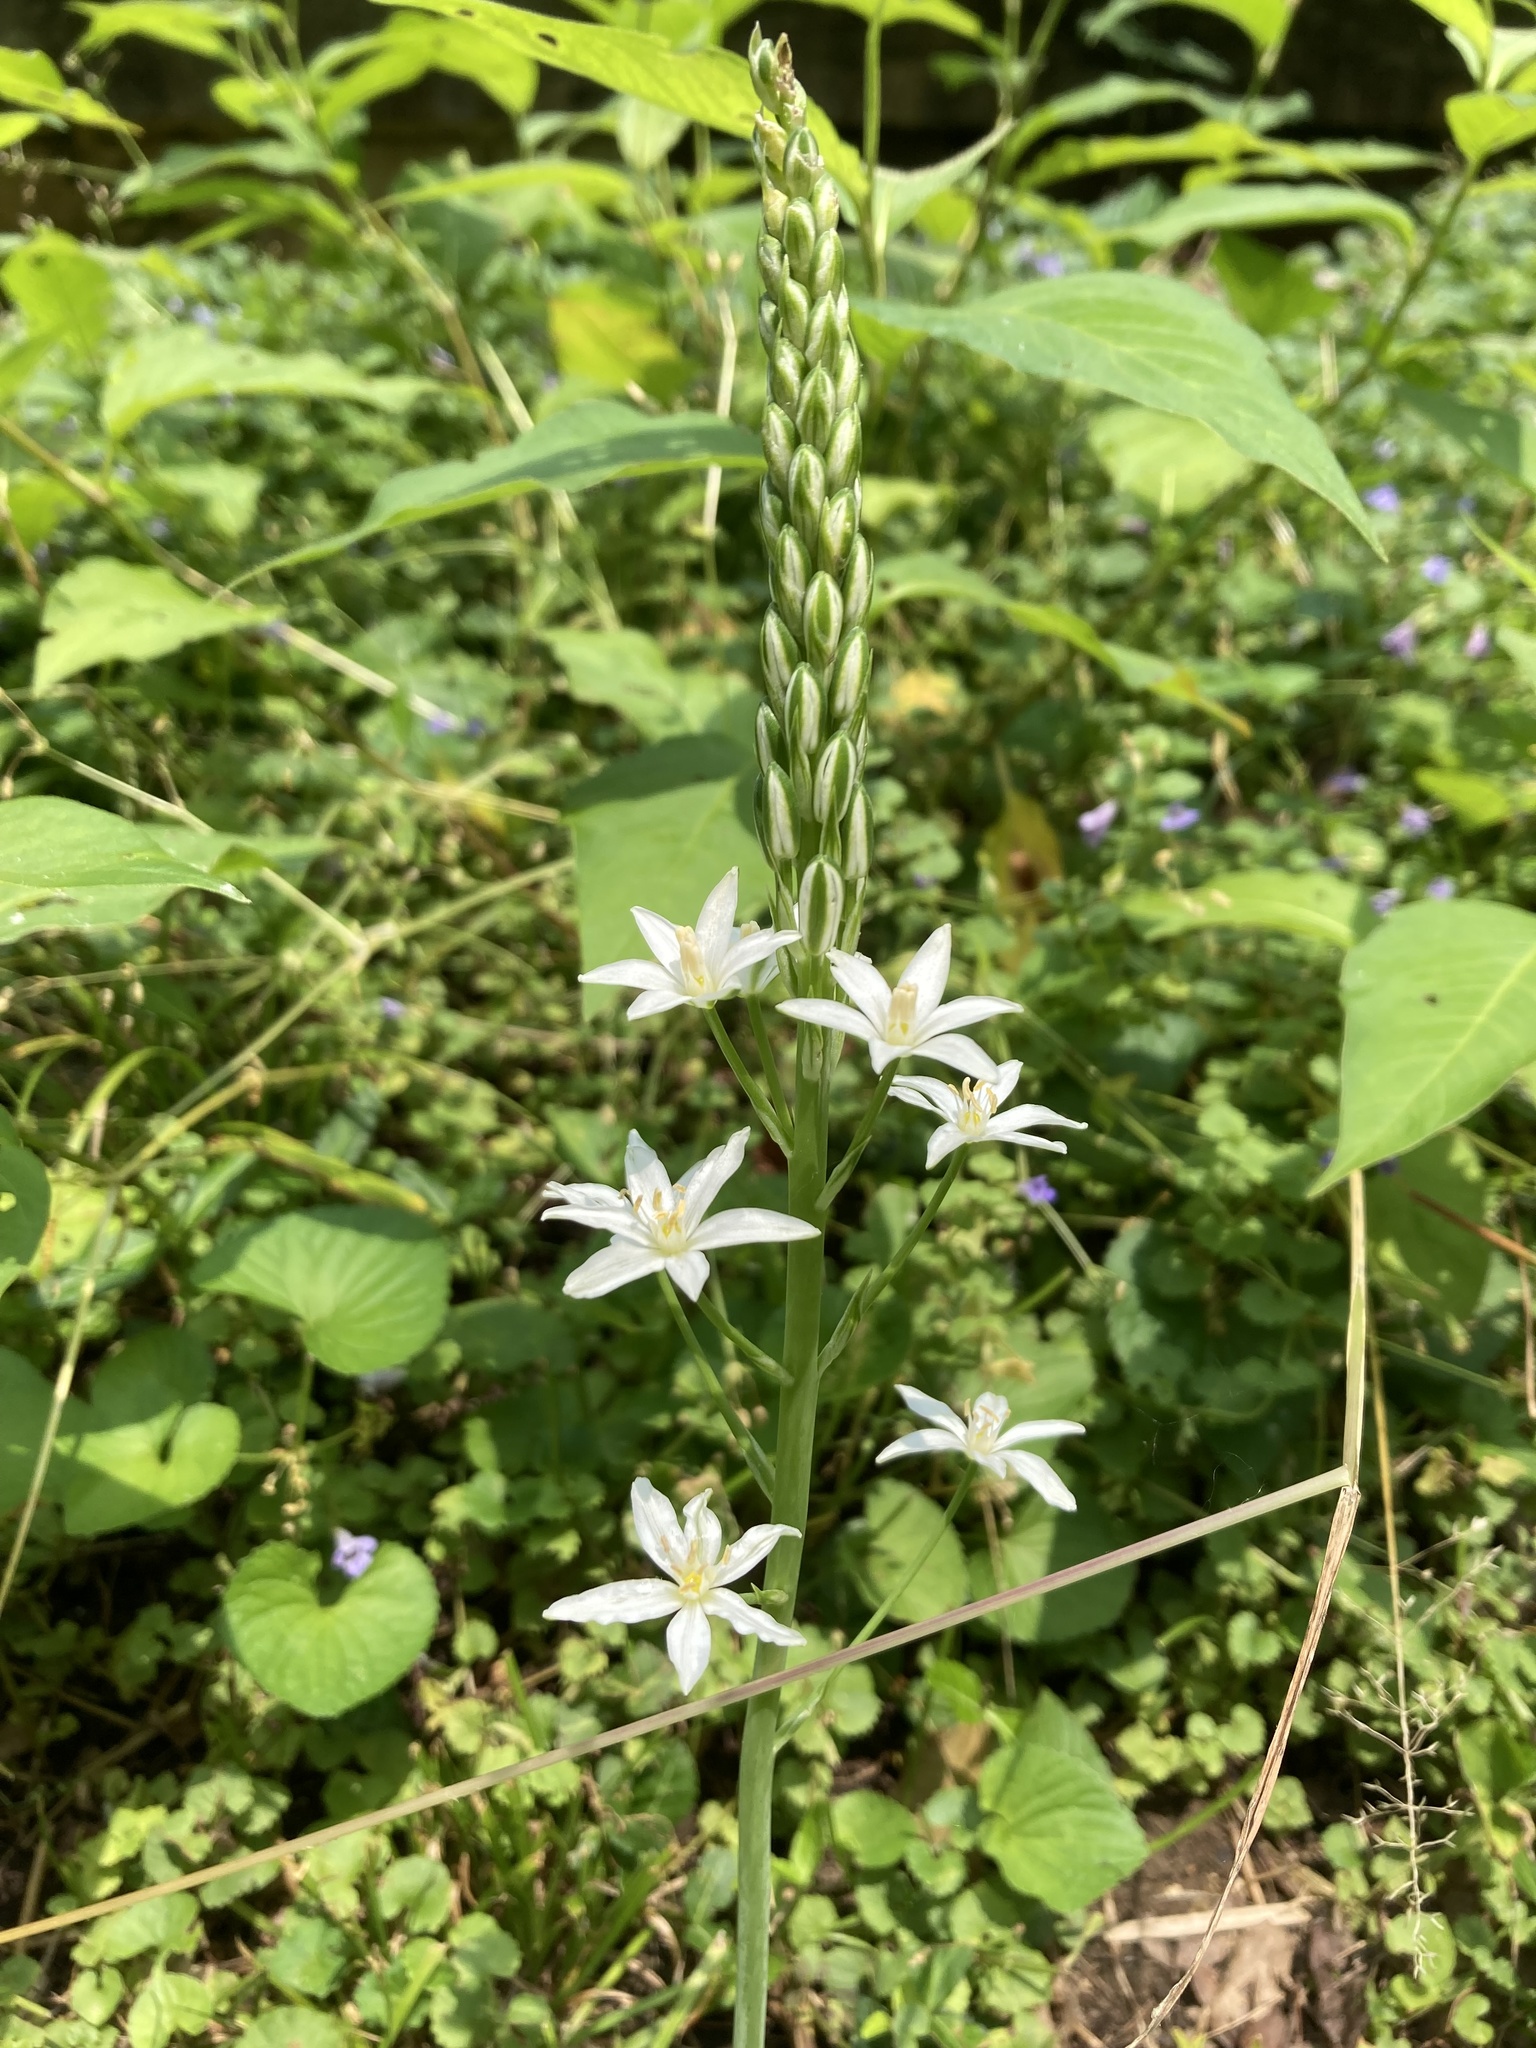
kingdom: Plantae
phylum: Tracheophyta
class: Liliopsida
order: Asparagales
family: Asparagaceae
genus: Ornithogalum
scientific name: Ornithogalum pyramidale
